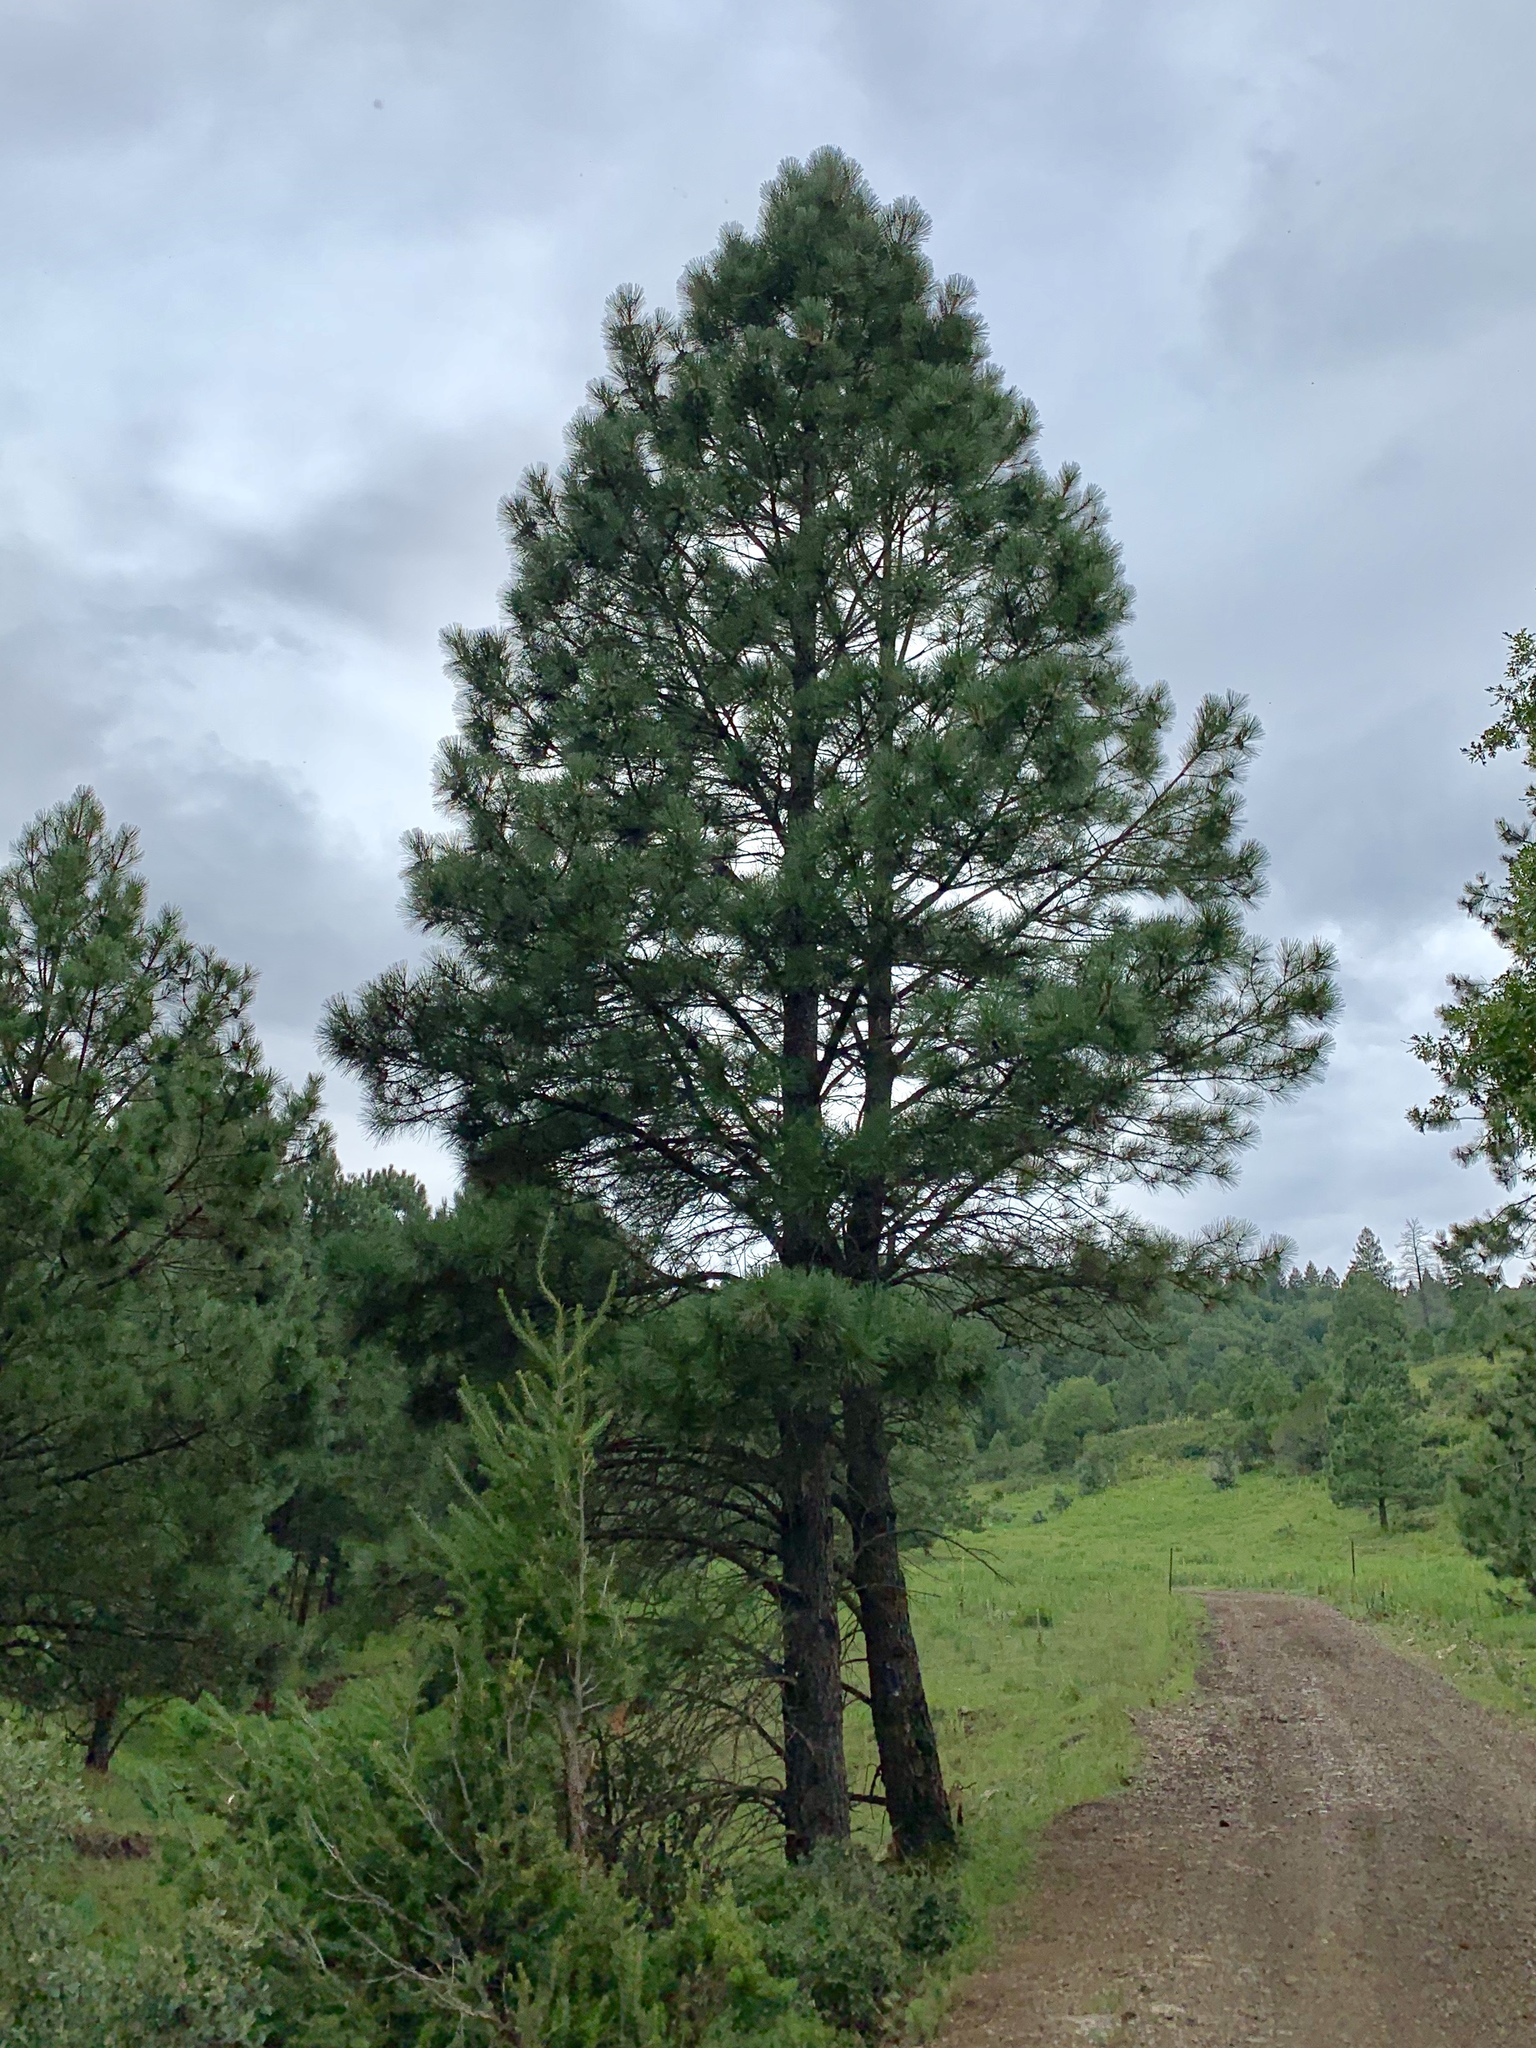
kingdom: Plantae
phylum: Tracheophyta
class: Pinopsida
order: Pinales
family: Pinaceae
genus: Pinus
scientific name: Pinus ponderosa
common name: Western yellow-pine
